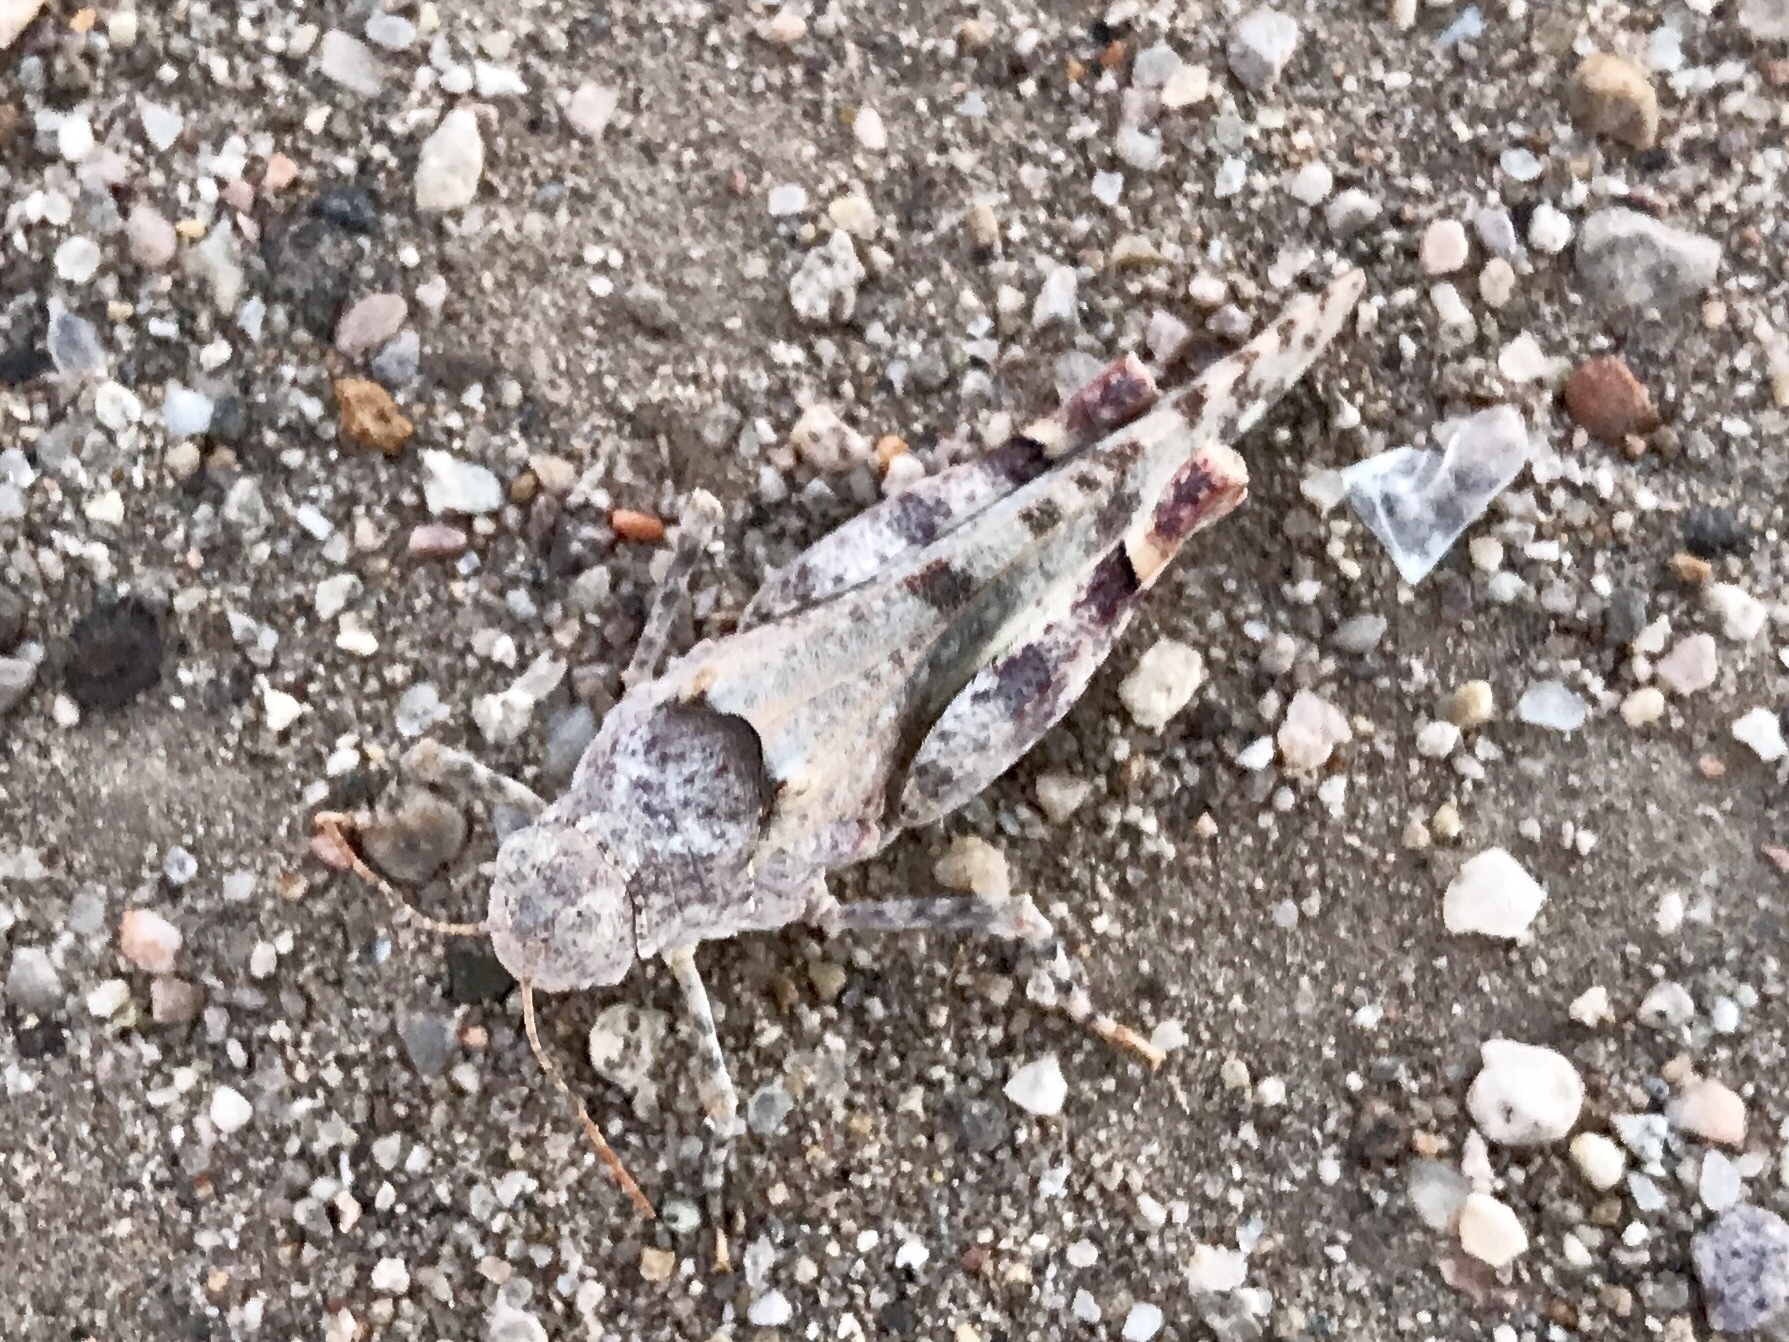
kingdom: Animalia
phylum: Arthropoda
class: Insecta
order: Orthoptera
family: Acrididae
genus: Cibolacris
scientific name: Cibolacris parviceps
